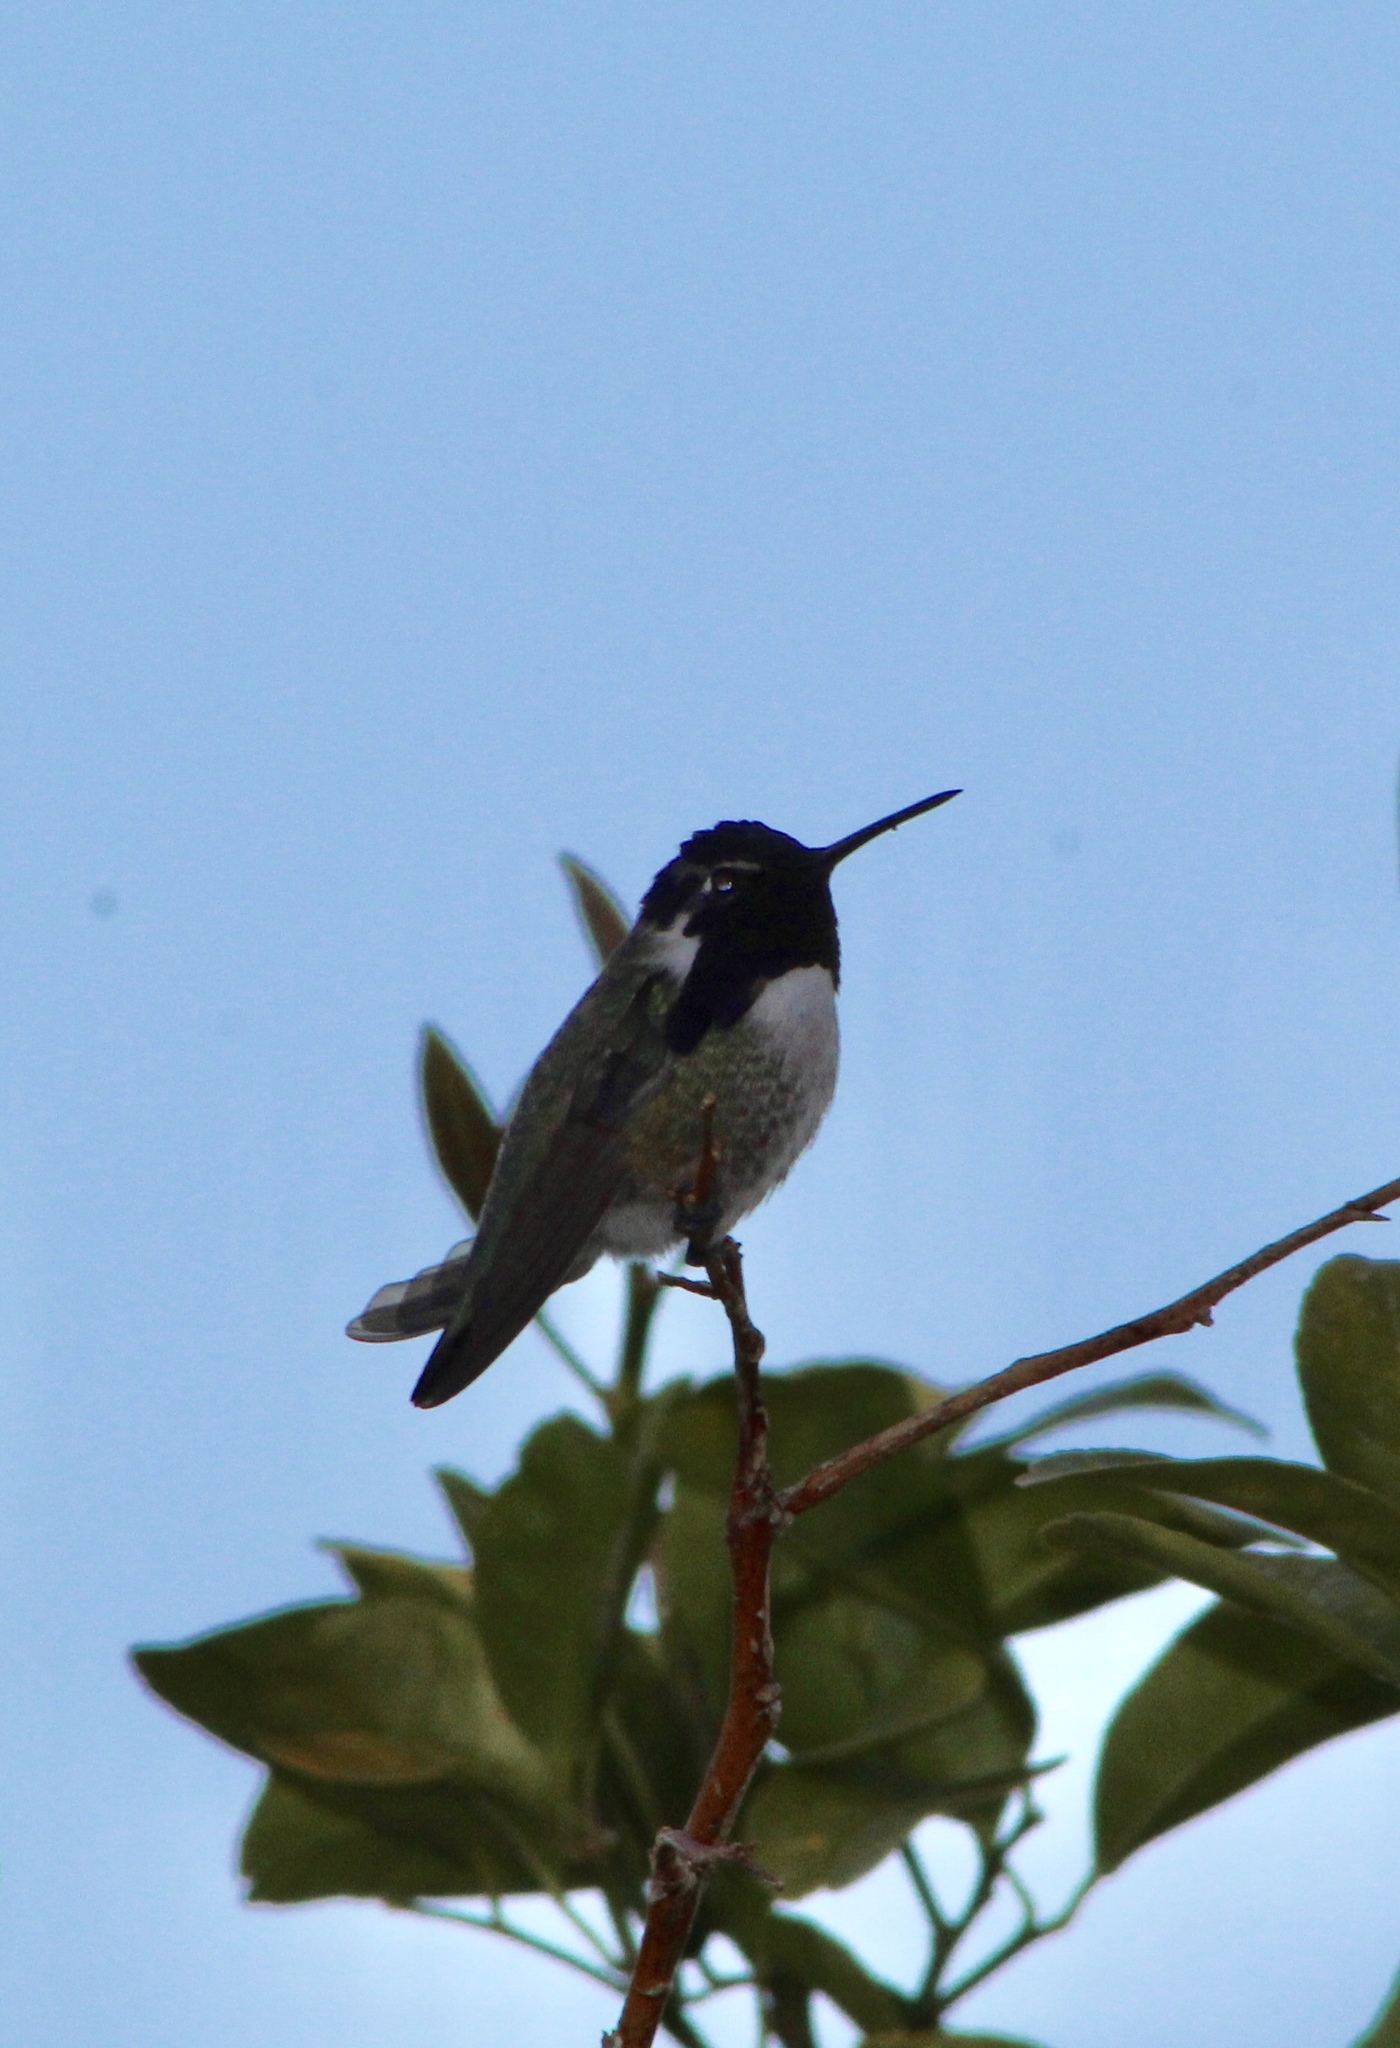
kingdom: Animalia
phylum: Chordata
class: Aves
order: Apodiformes
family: Trochilidae
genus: Calypte
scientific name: Calypte costae
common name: Costa's hummingbird
